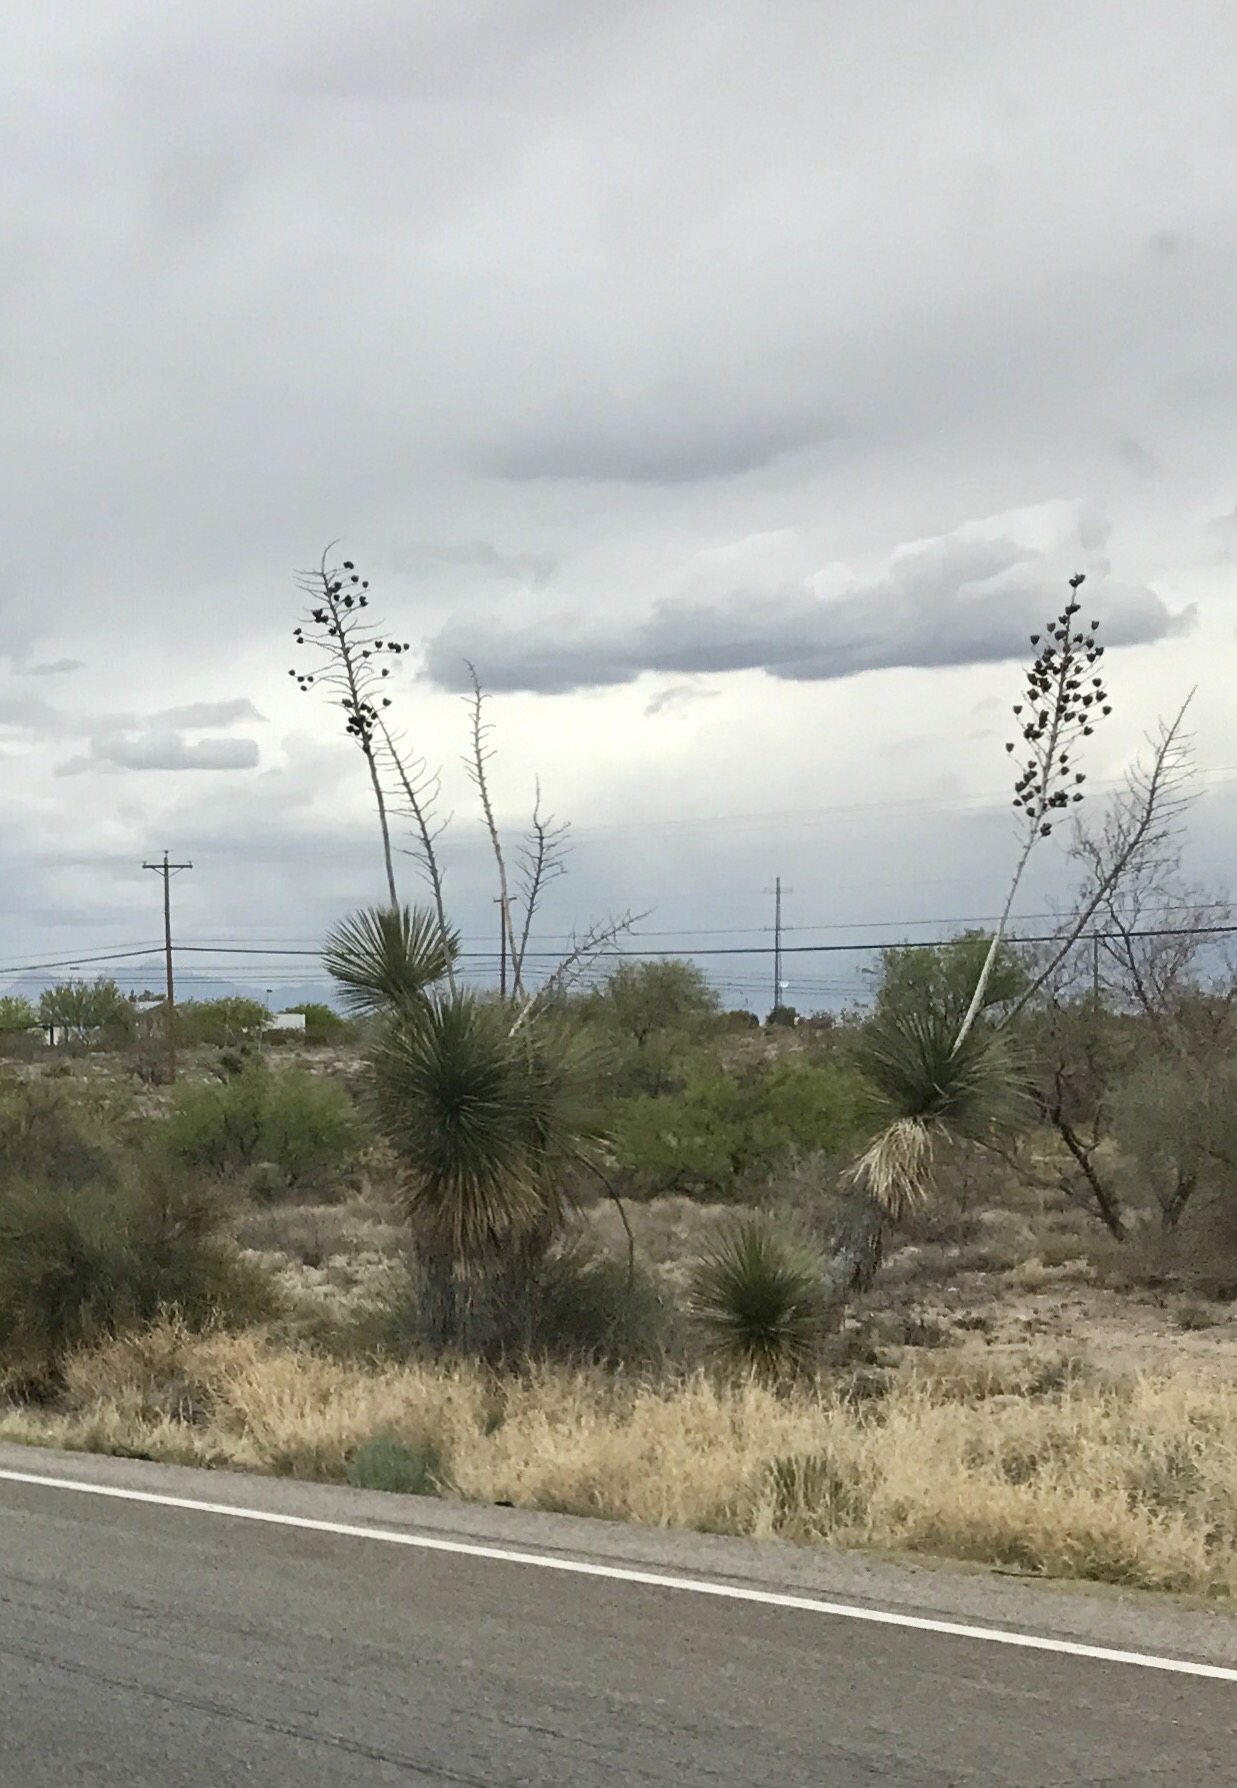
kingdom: Plantae
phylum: Tracheophyta
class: Liliopsida
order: Asparagales
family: Asparagaceae
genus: Yucca
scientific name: Yucca elata
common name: Palmella
